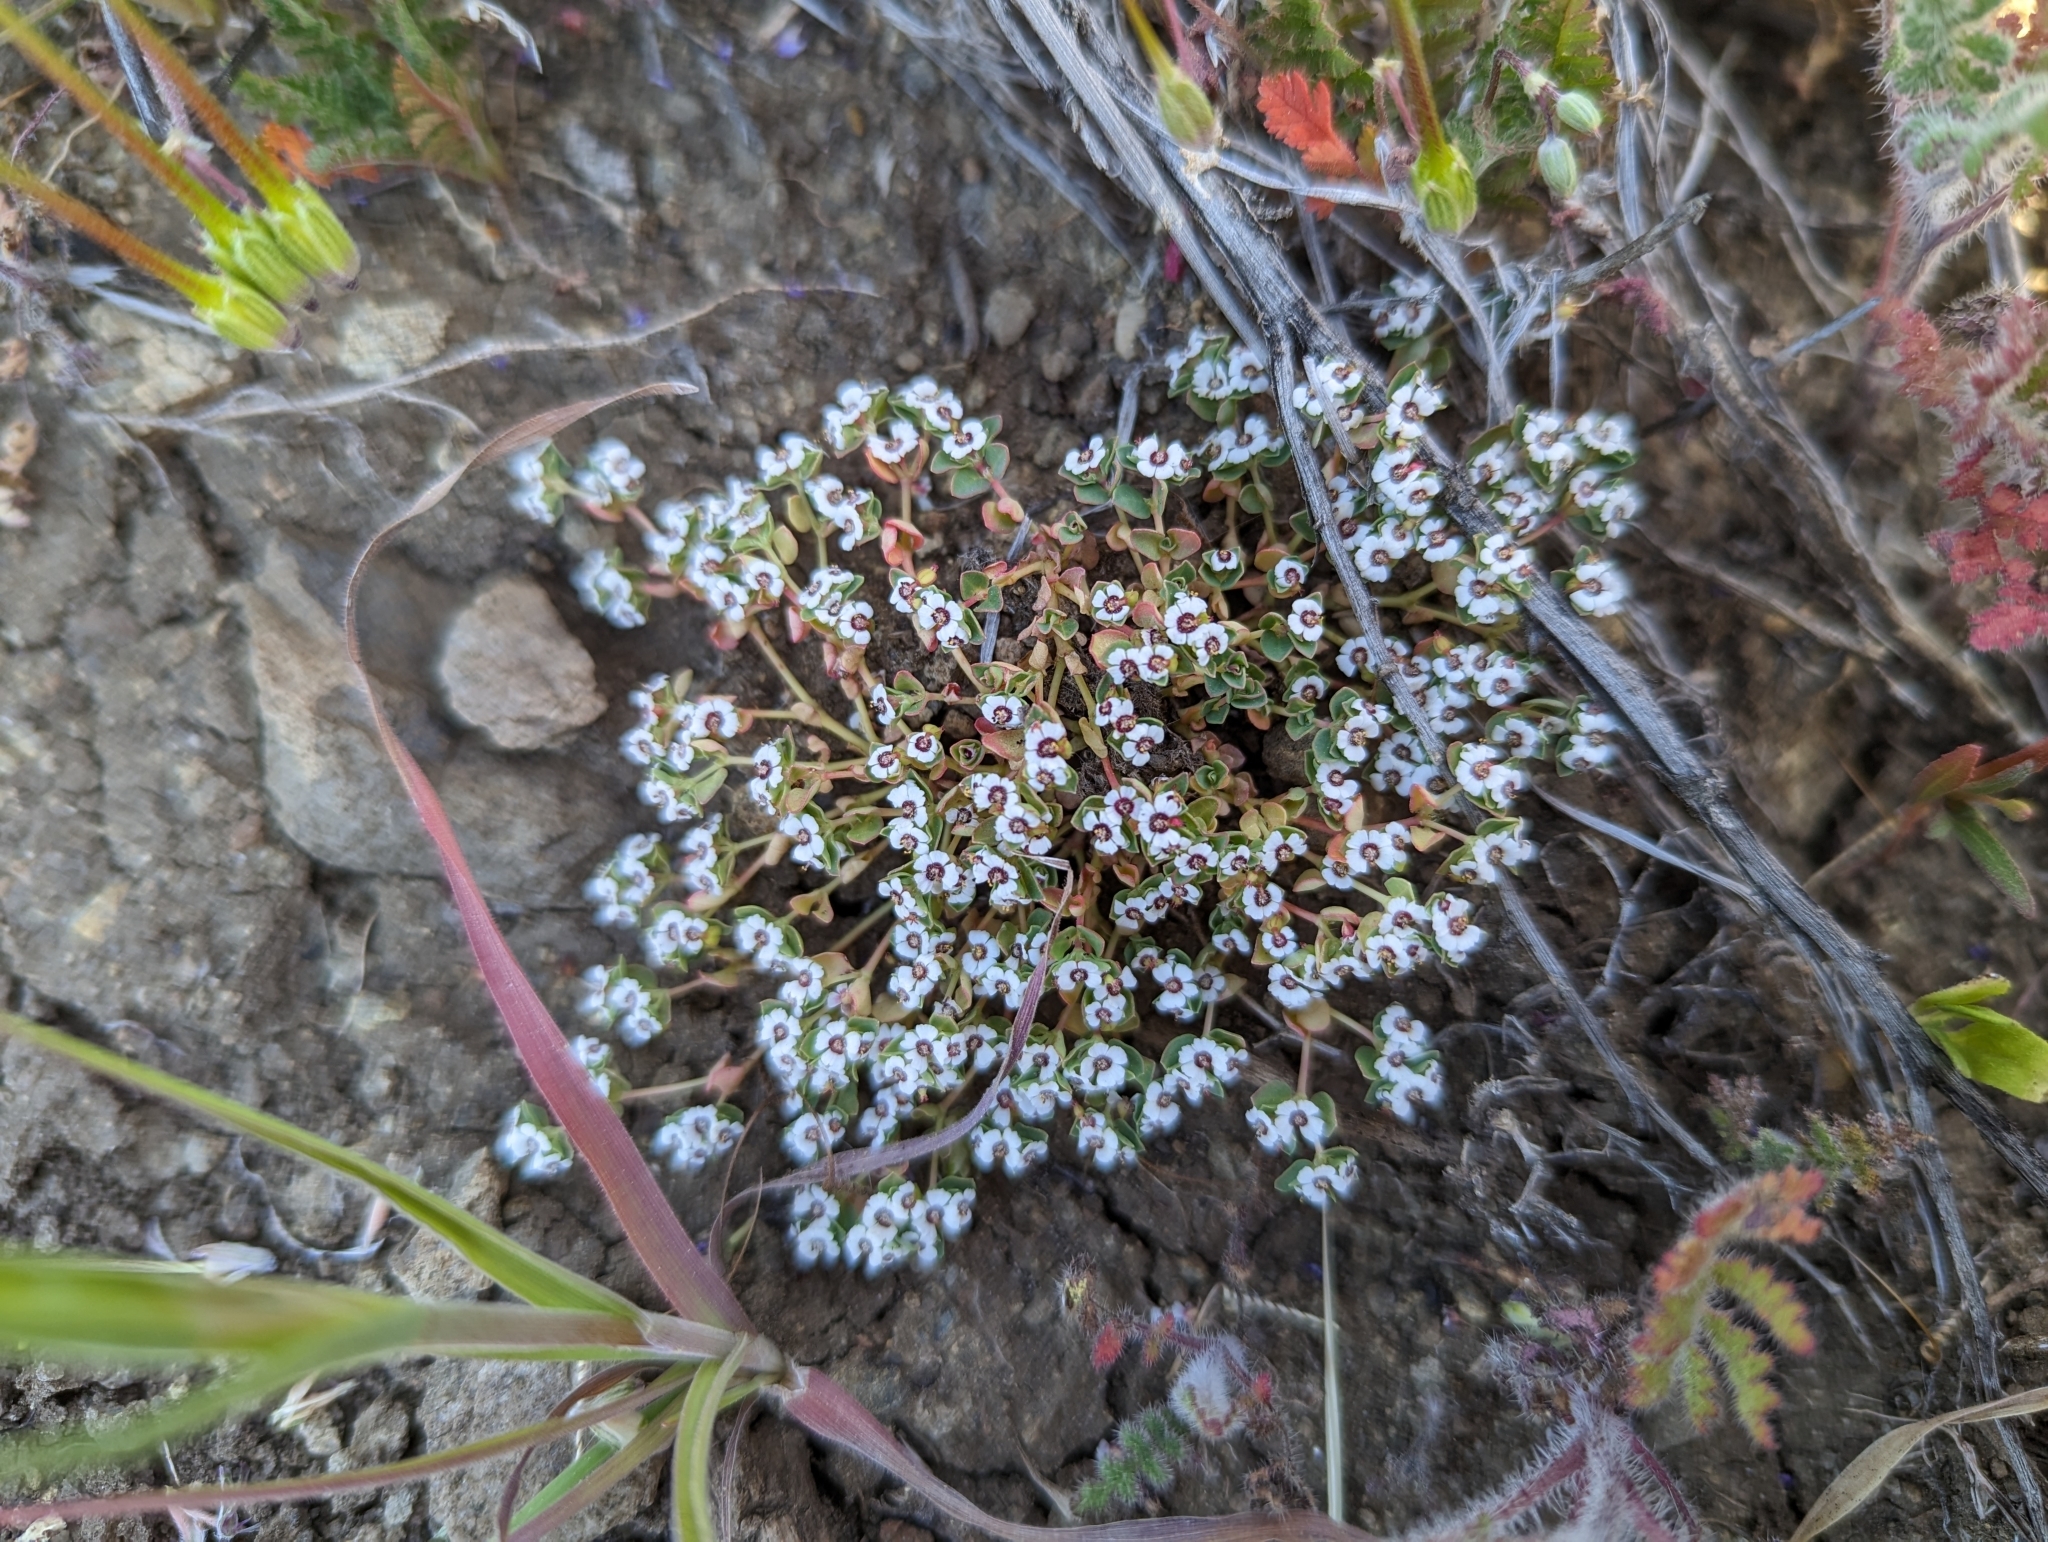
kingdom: Plantae
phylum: Tracheophyta
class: Magnoliopsida
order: Malpighiales
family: Euphorbiaceae
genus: Euphorbia
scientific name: Euphorbia polycarpa
